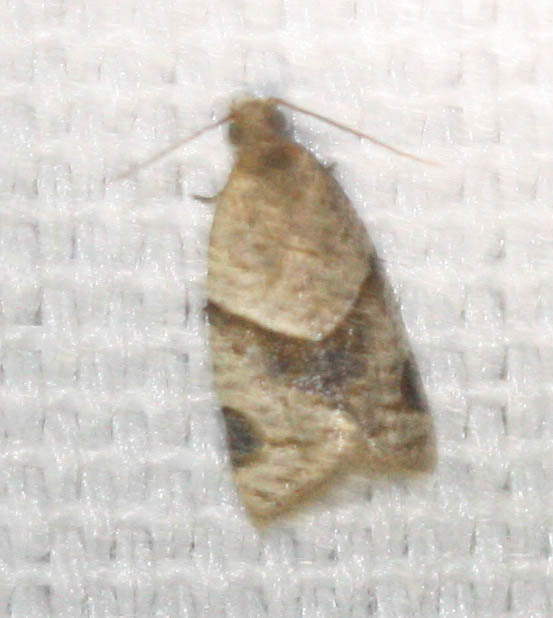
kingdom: Animalia
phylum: Arthropoda
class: Insecta
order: Lepidoptera
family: Tortricidae
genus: Clepsis
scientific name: Clepsis peritana
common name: Garden tortrix
